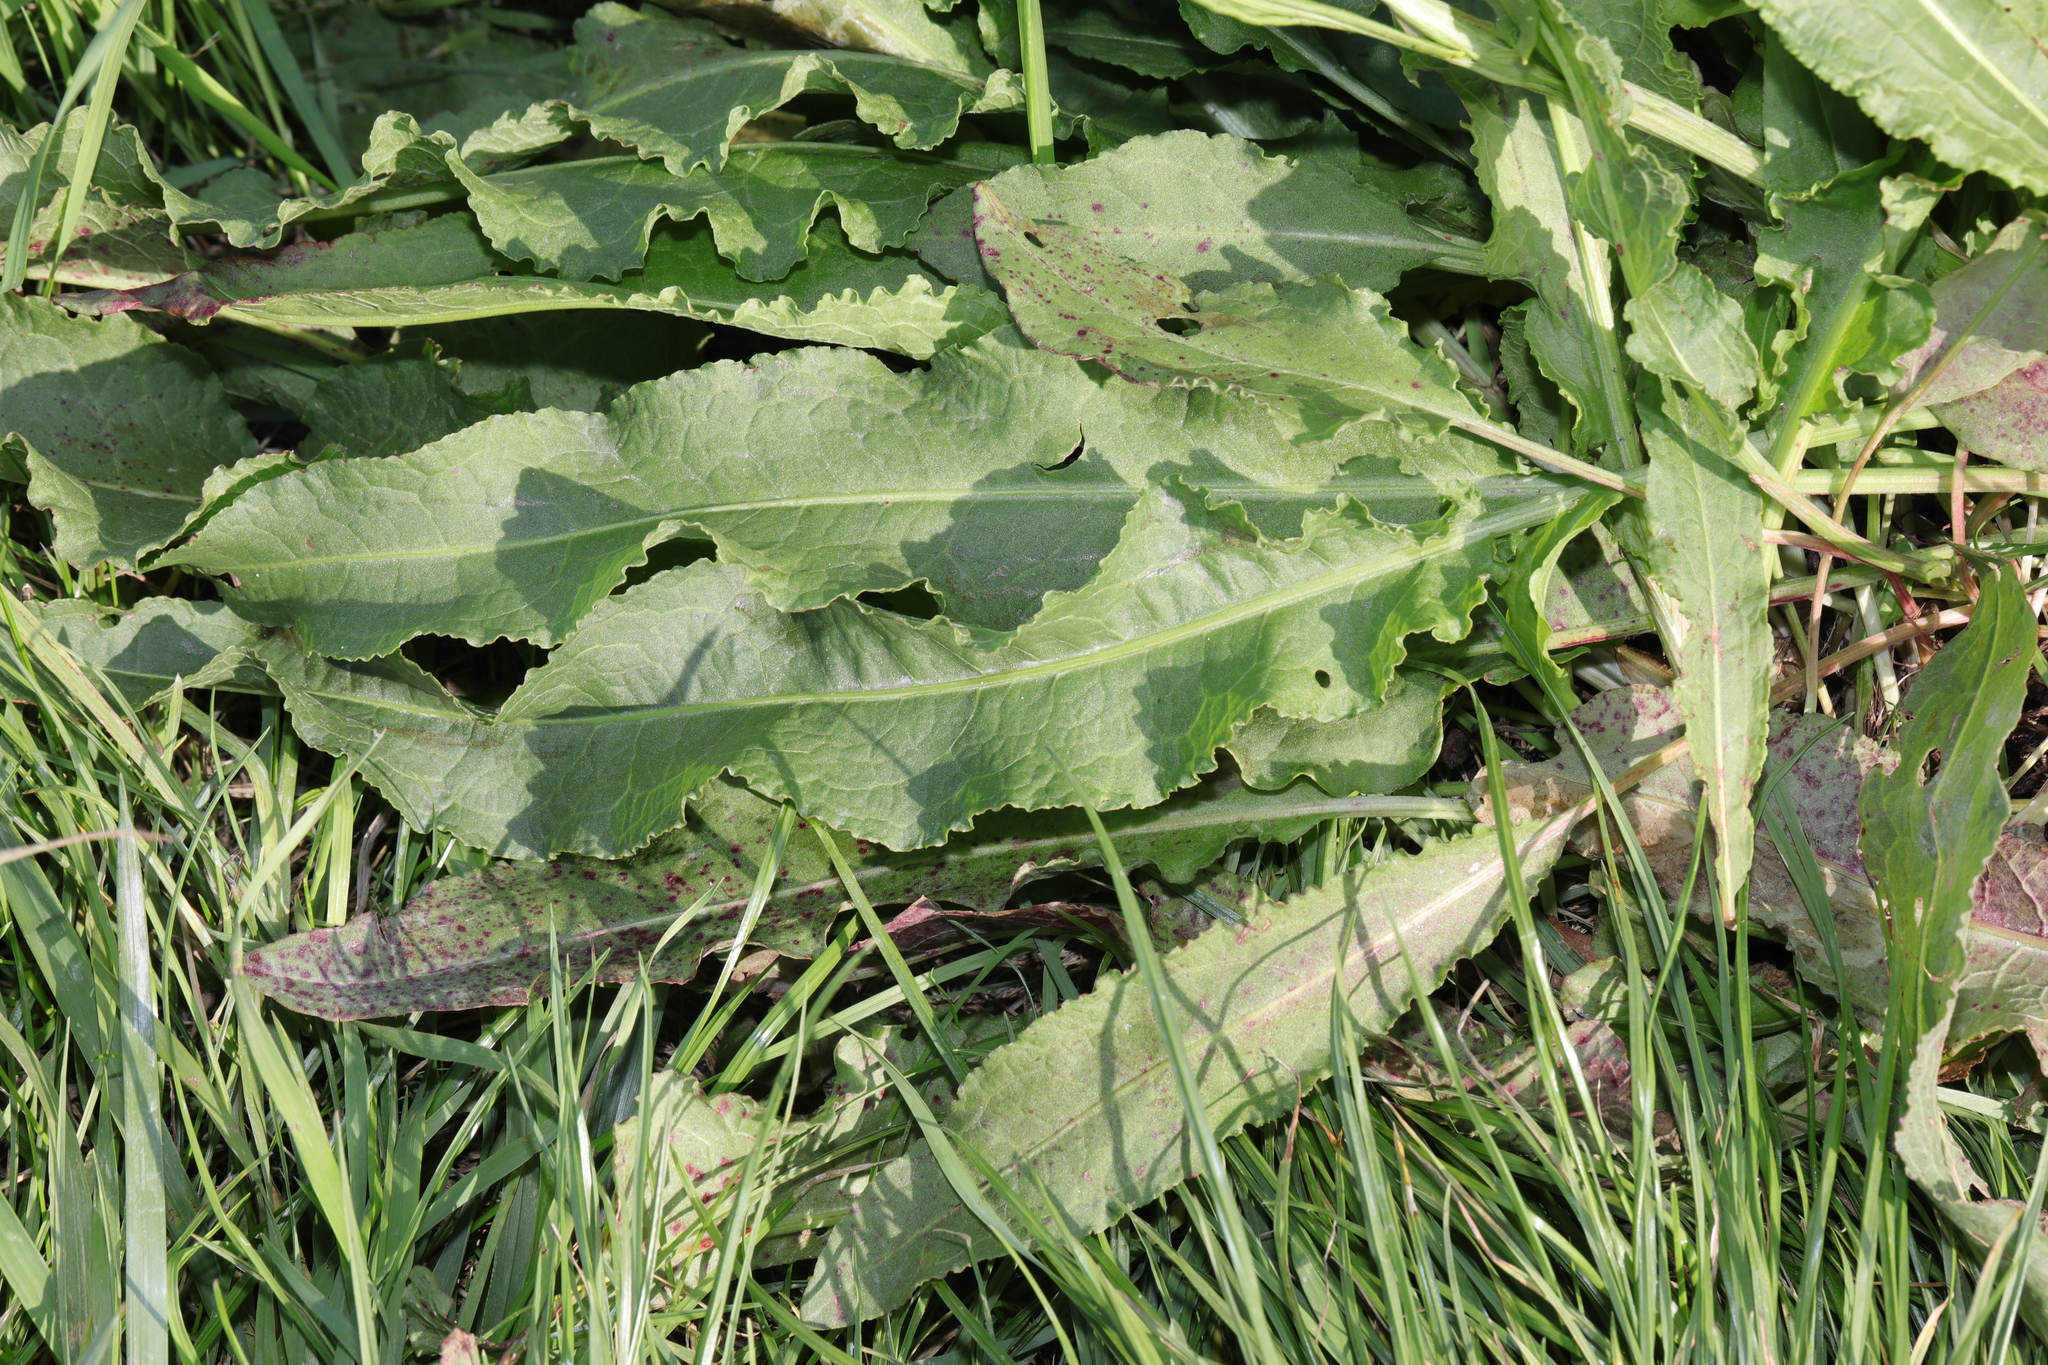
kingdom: Plantae
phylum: Tracheophyta
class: Magnoliopsida
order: Caryophyllales
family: Polygonaceae
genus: Rumex
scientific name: Rumex crispus
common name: Curled dock
